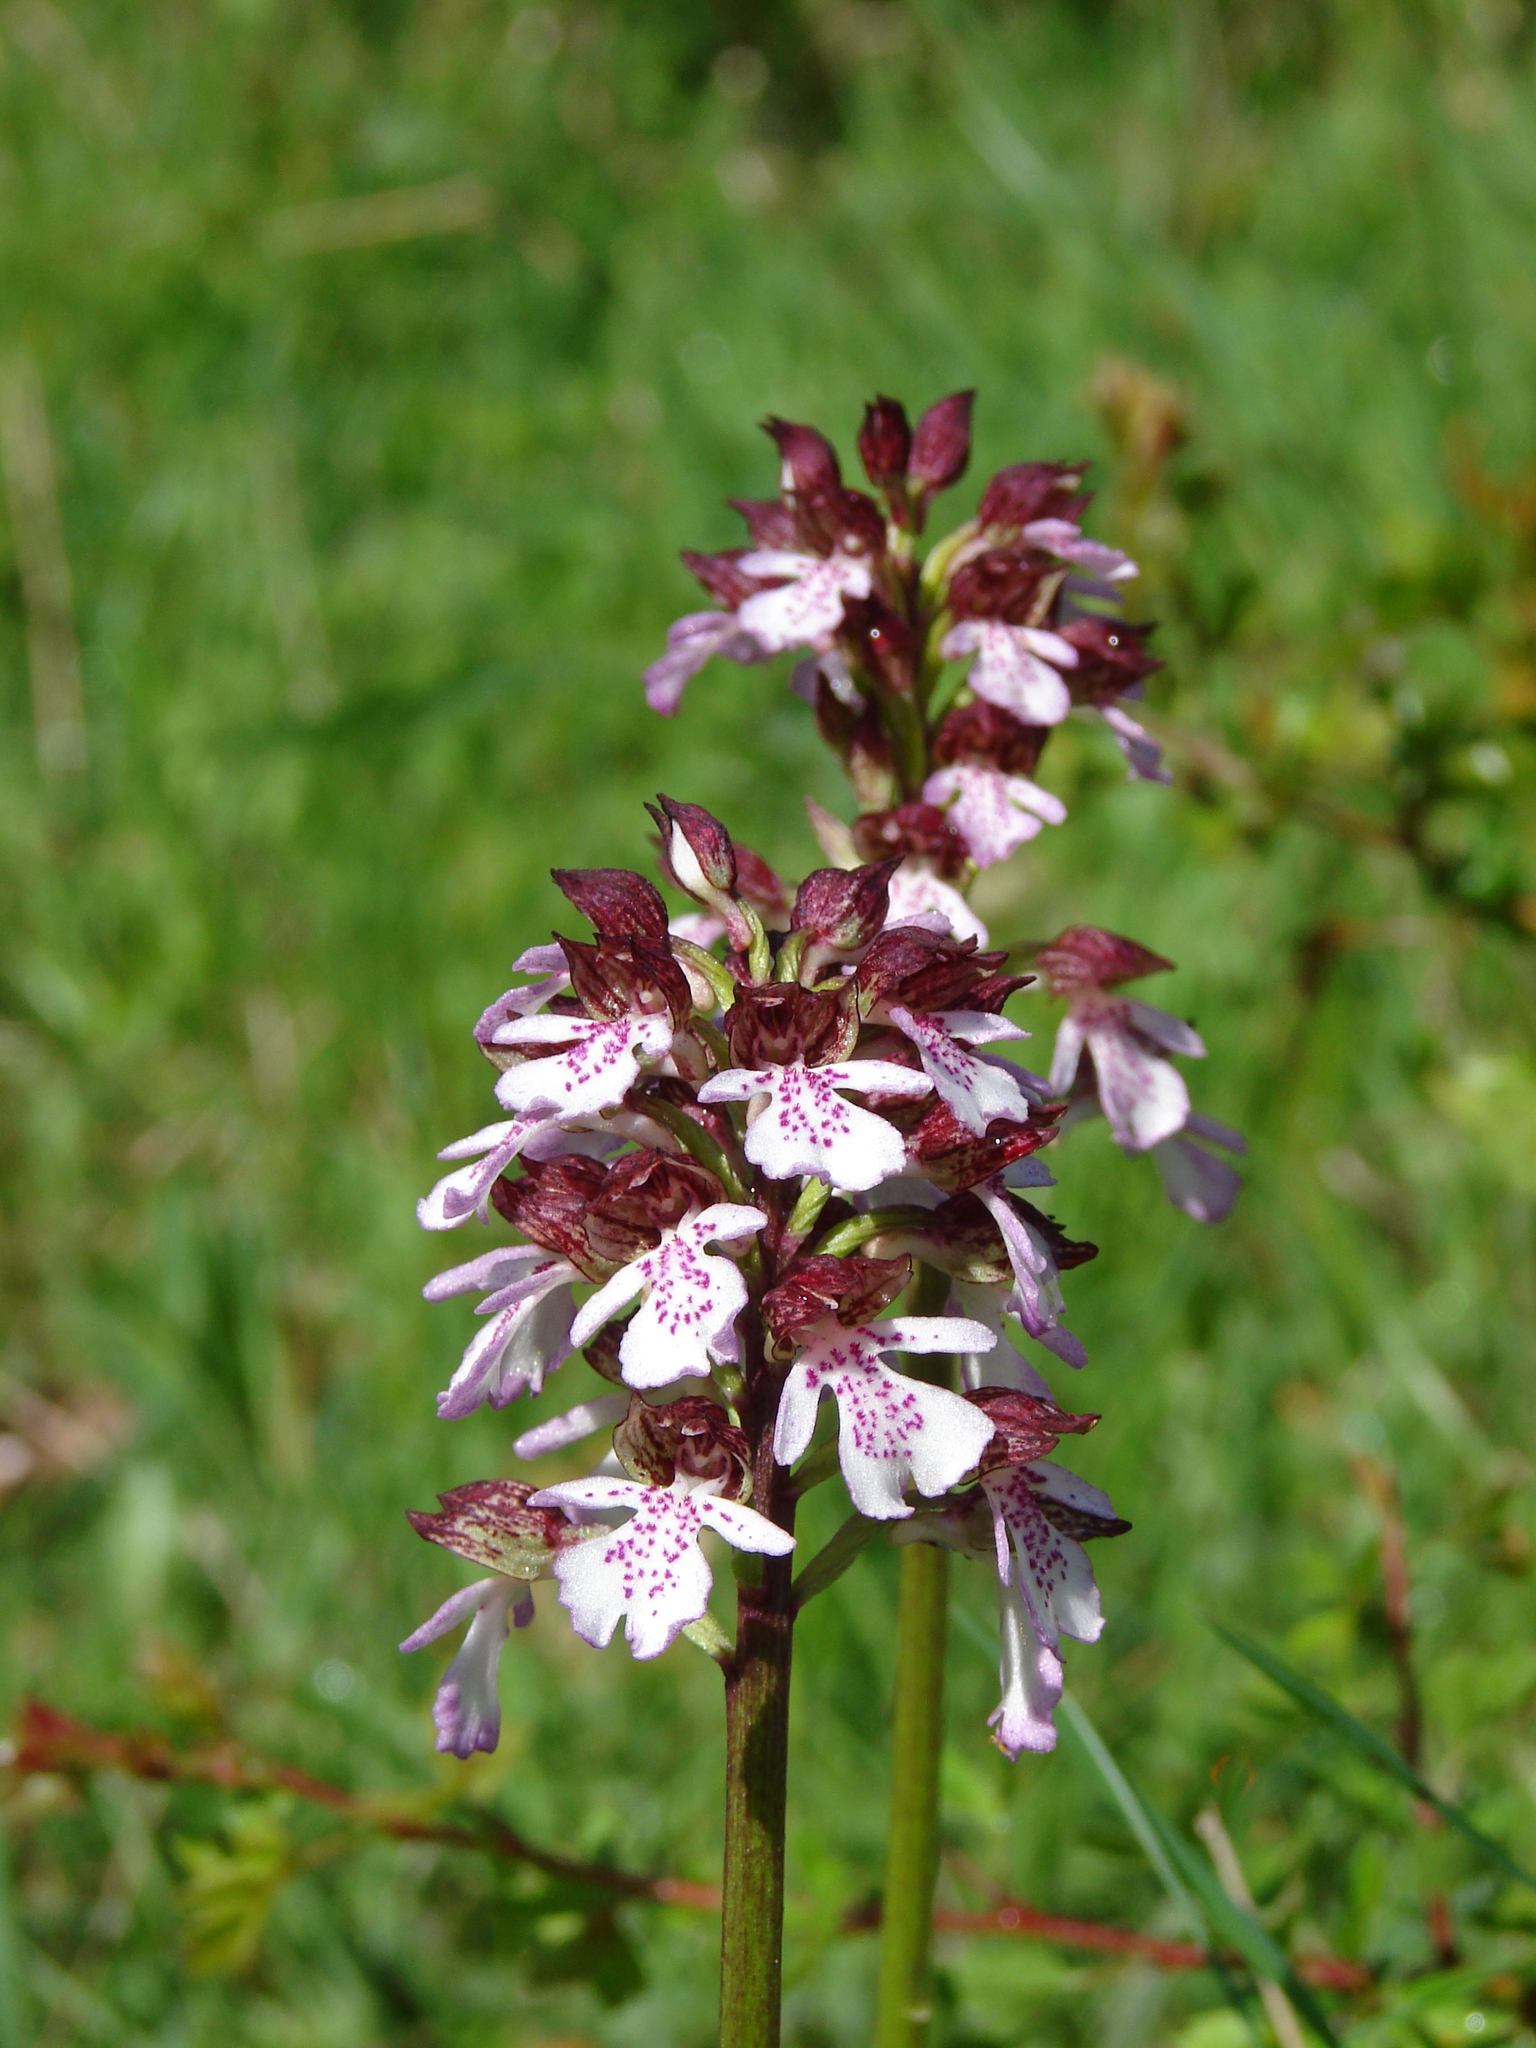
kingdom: Plantae
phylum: Tracheophyta
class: Liliopsida
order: Asparagales
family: Orchidaceae
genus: Orchis
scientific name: Orchis purpurea
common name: Lady orchid
